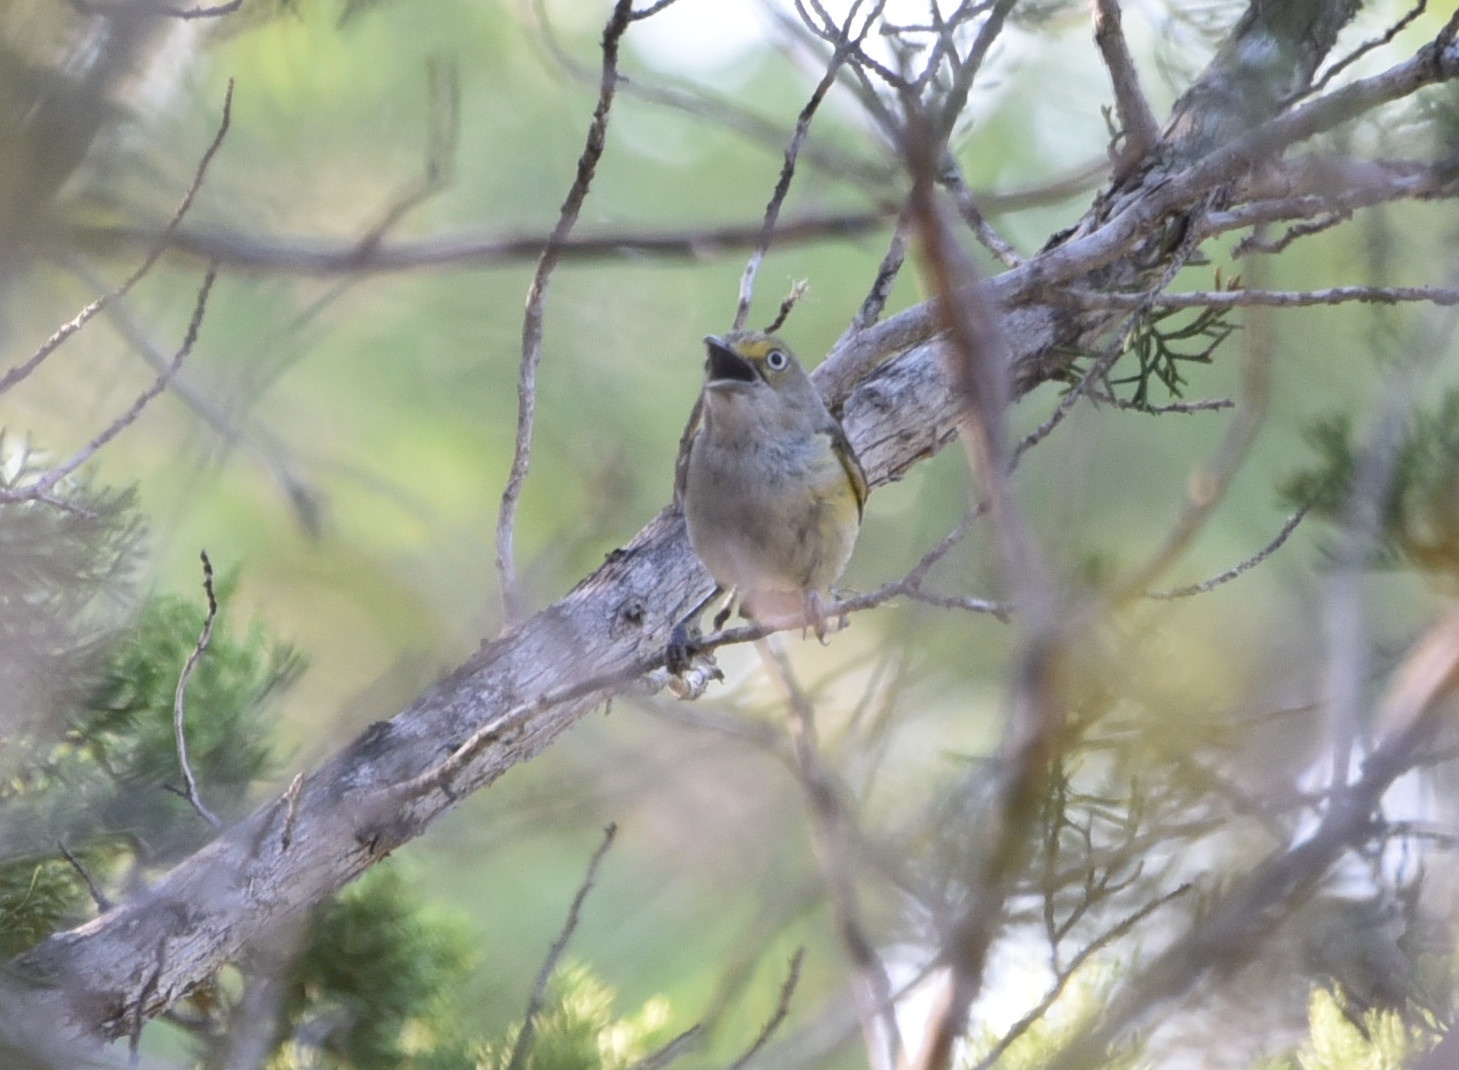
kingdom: Animalia
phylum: Chordata
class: Aves
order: Passeriformes
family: Vireonidae
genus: Vireo
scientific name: Vireo griseus
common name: White-eyed vireo
